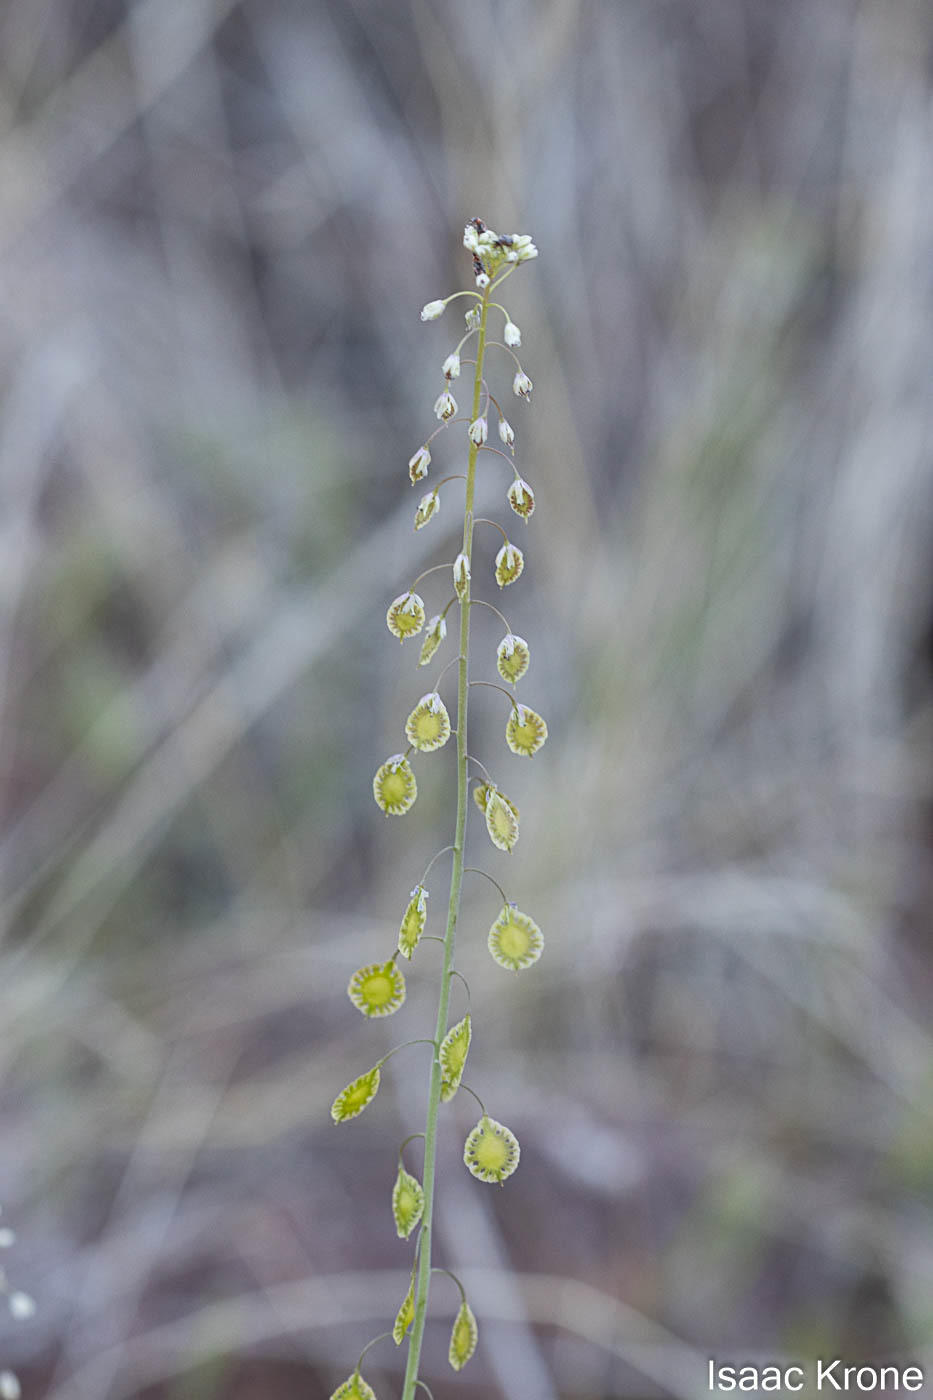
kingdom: Plantae
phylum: Tracheophyta
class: Magnoliopsida
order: Brassicales
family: Brassicaceae
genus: Thysanocarpus
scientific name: Thysanocarpus curvipes
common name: Sand fringepod
